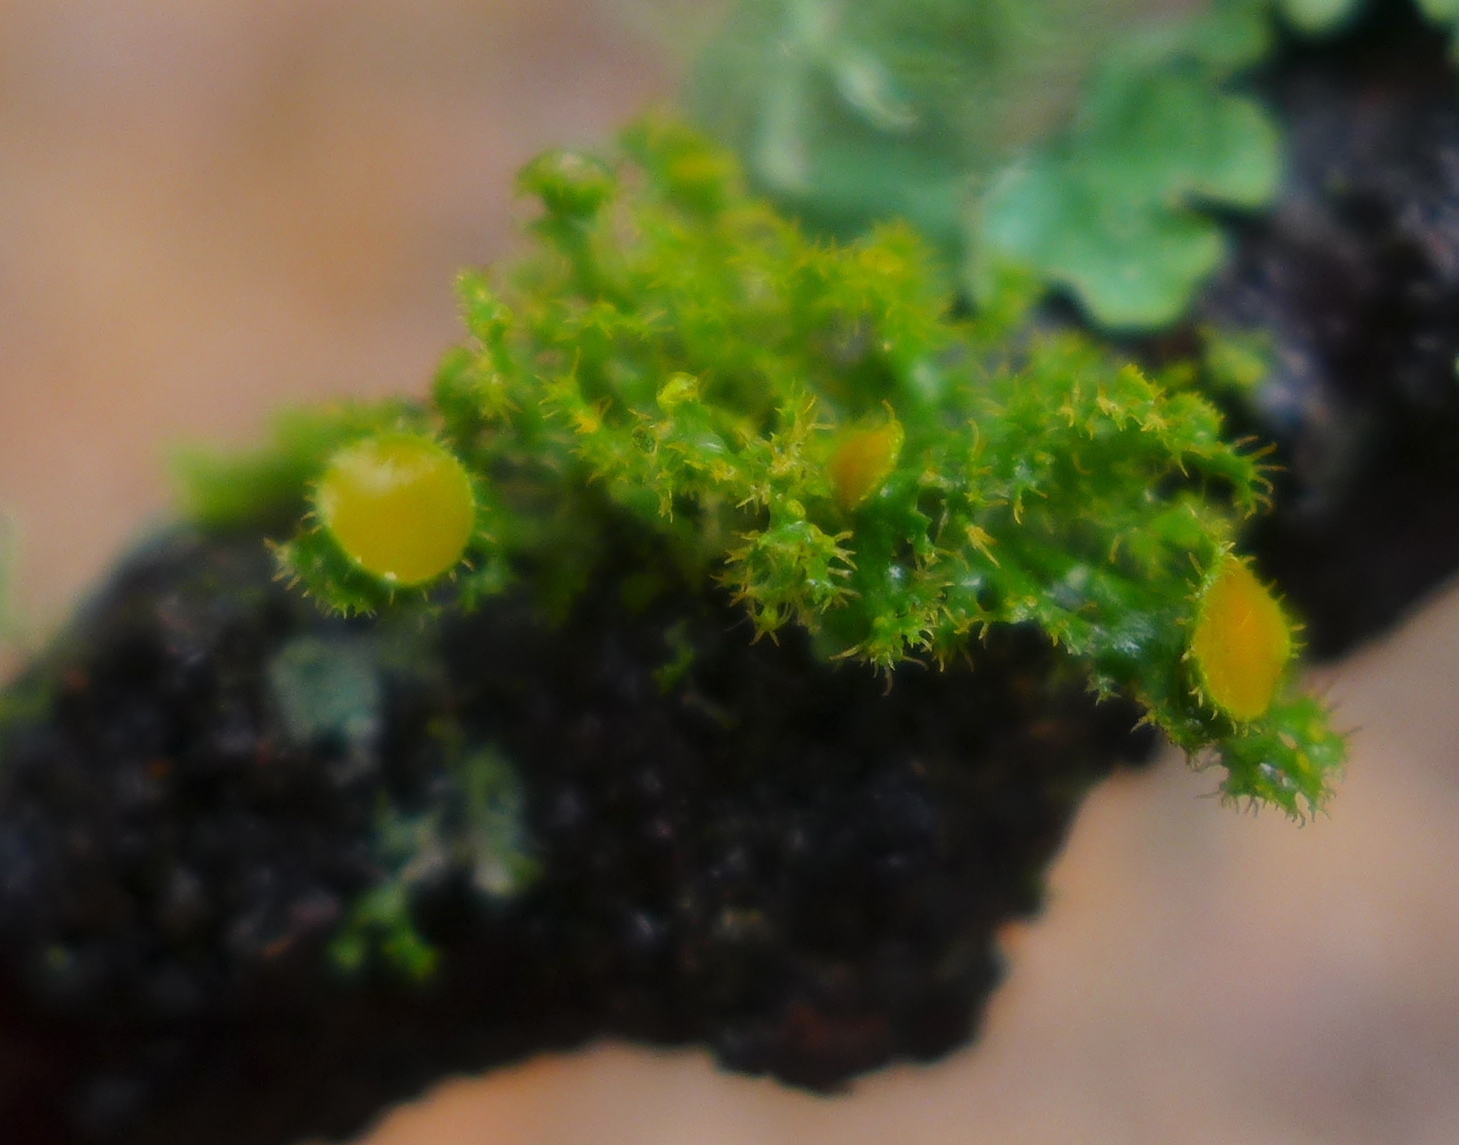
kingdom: Fungi
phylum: Ascomycota
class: Lecanoromycetes
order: Teloschistales
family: Teloschistaceae
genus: Niorma
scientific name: Niorma chrysophthalma
